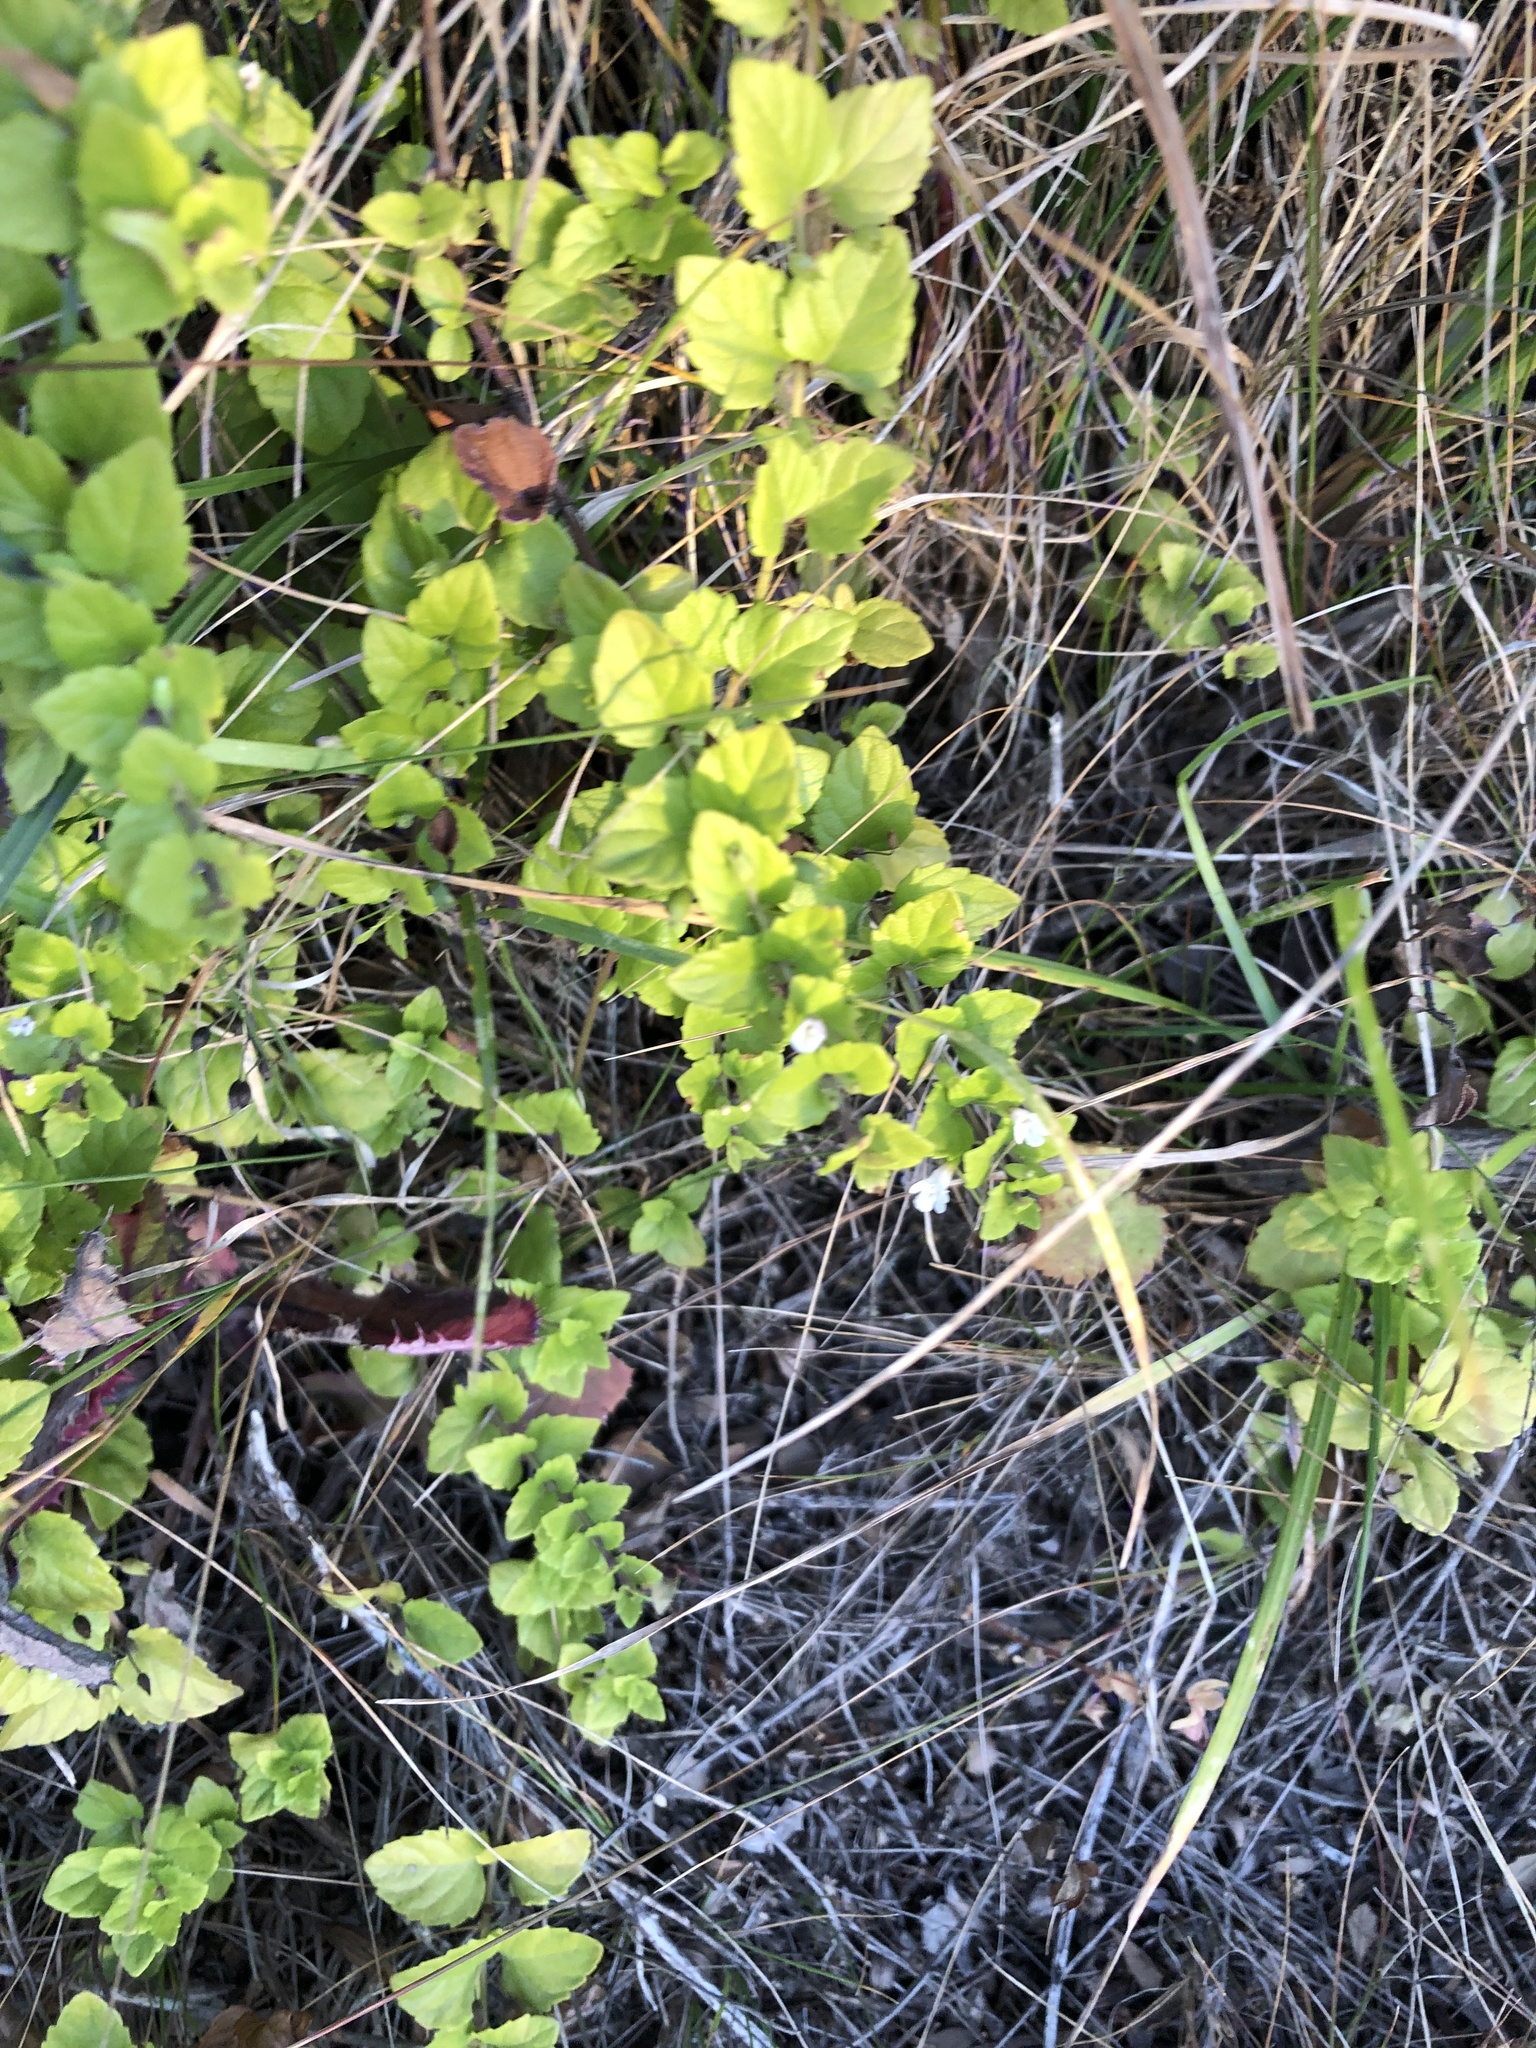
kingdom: Plantae
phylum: Tracheophyta
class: Magnoliopsida
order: Lamiales
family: Lamiaceae
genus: Micromeria
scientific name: Micromeria douglasii
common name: Yerba buena
